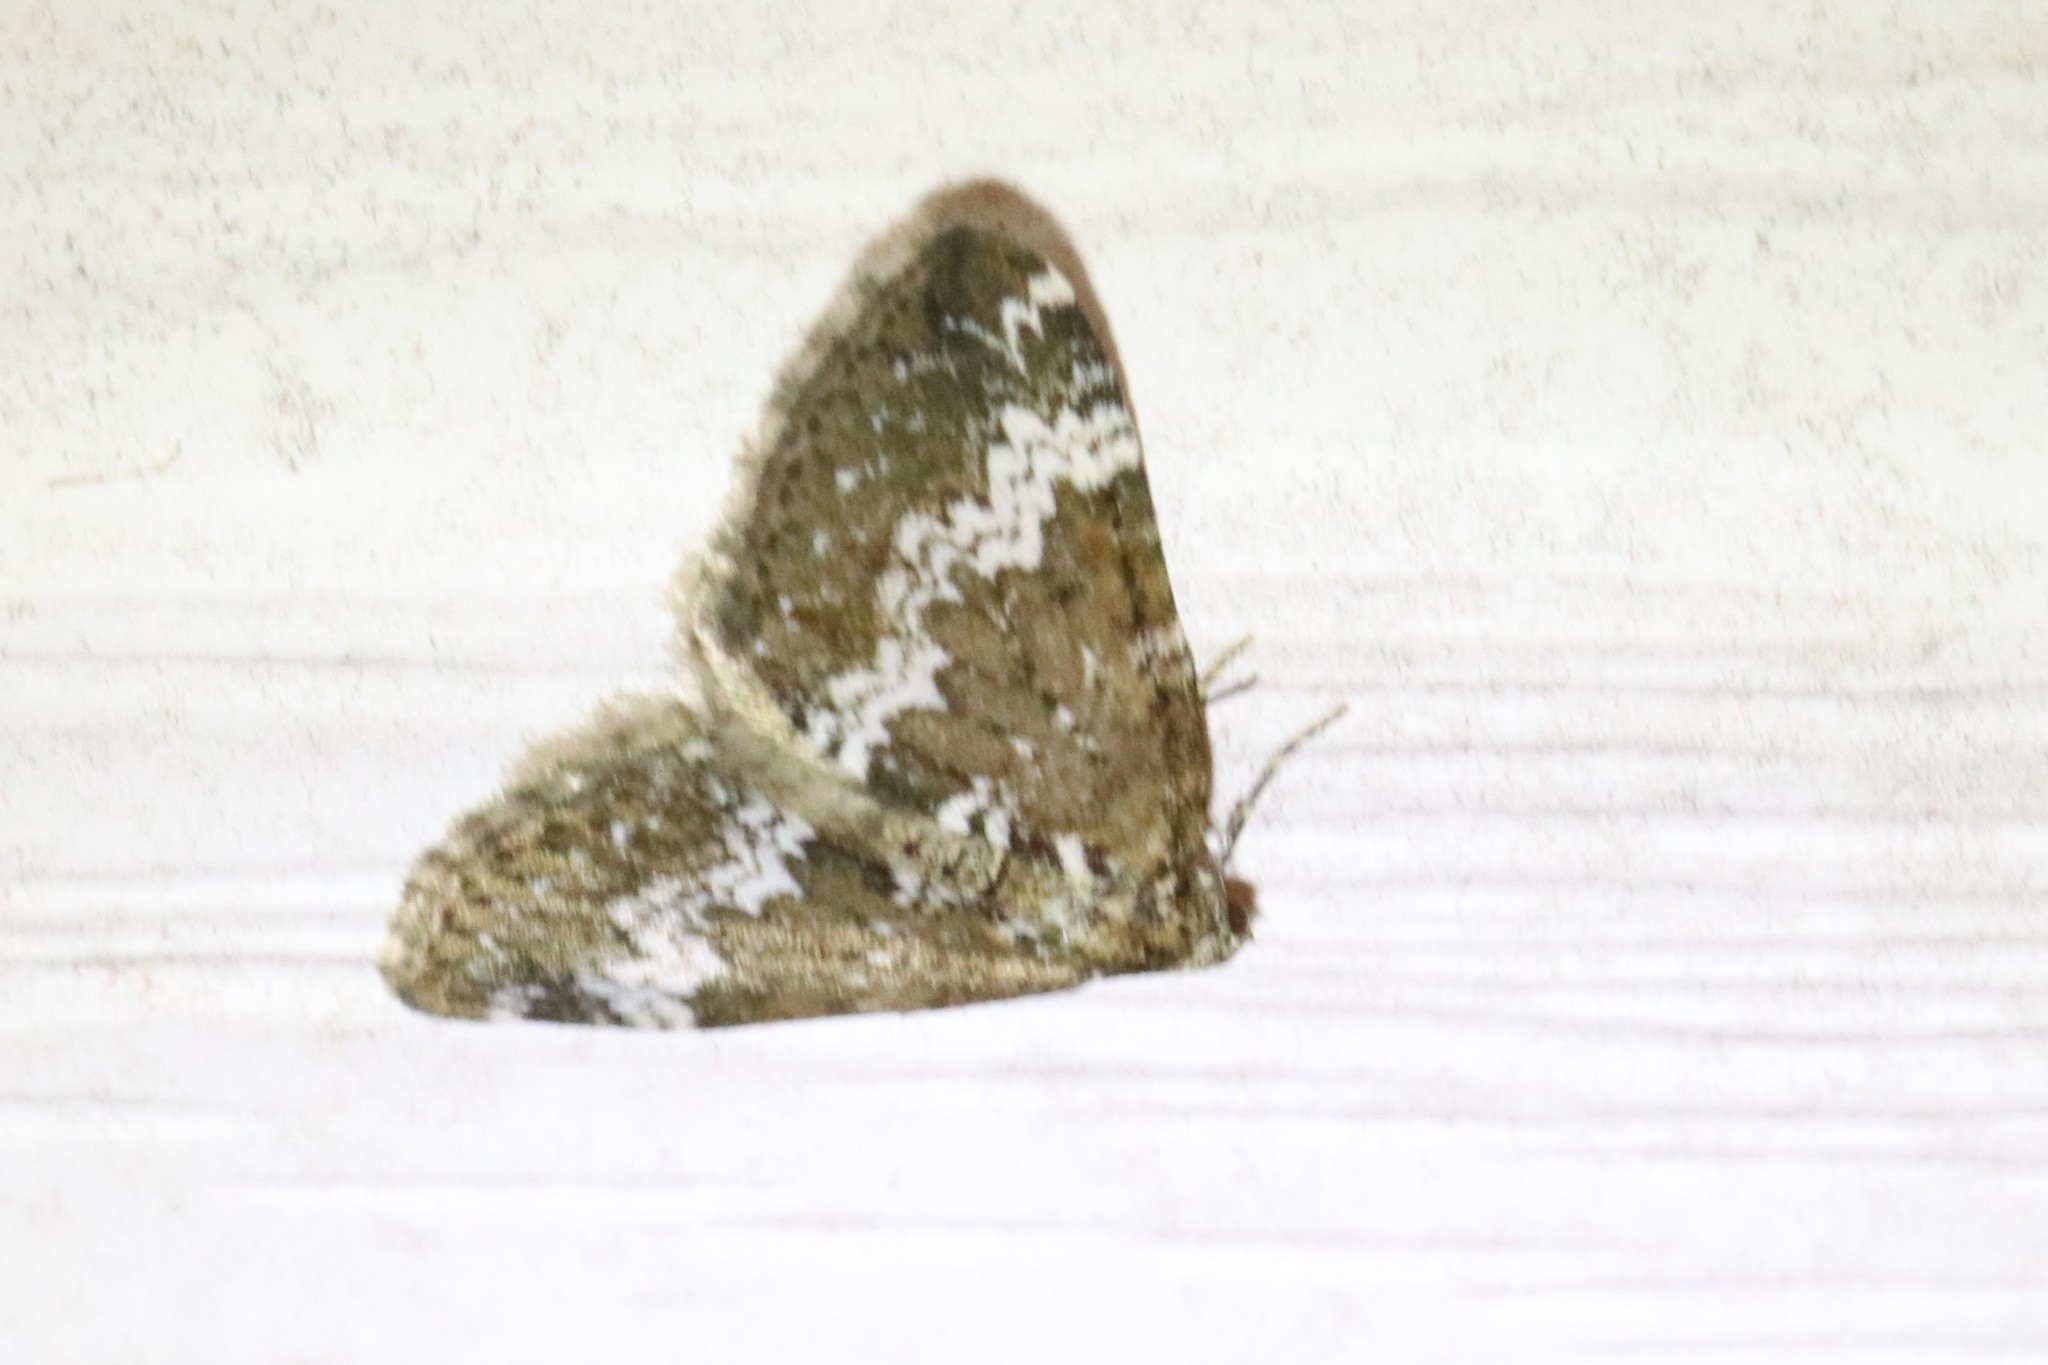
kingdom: Animalia
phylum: Arthropoda
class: Insecta
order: Lepidoptera
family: Geometridae
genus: Perizoma
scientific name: Perizoma alchemillata
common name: Small rivulet
